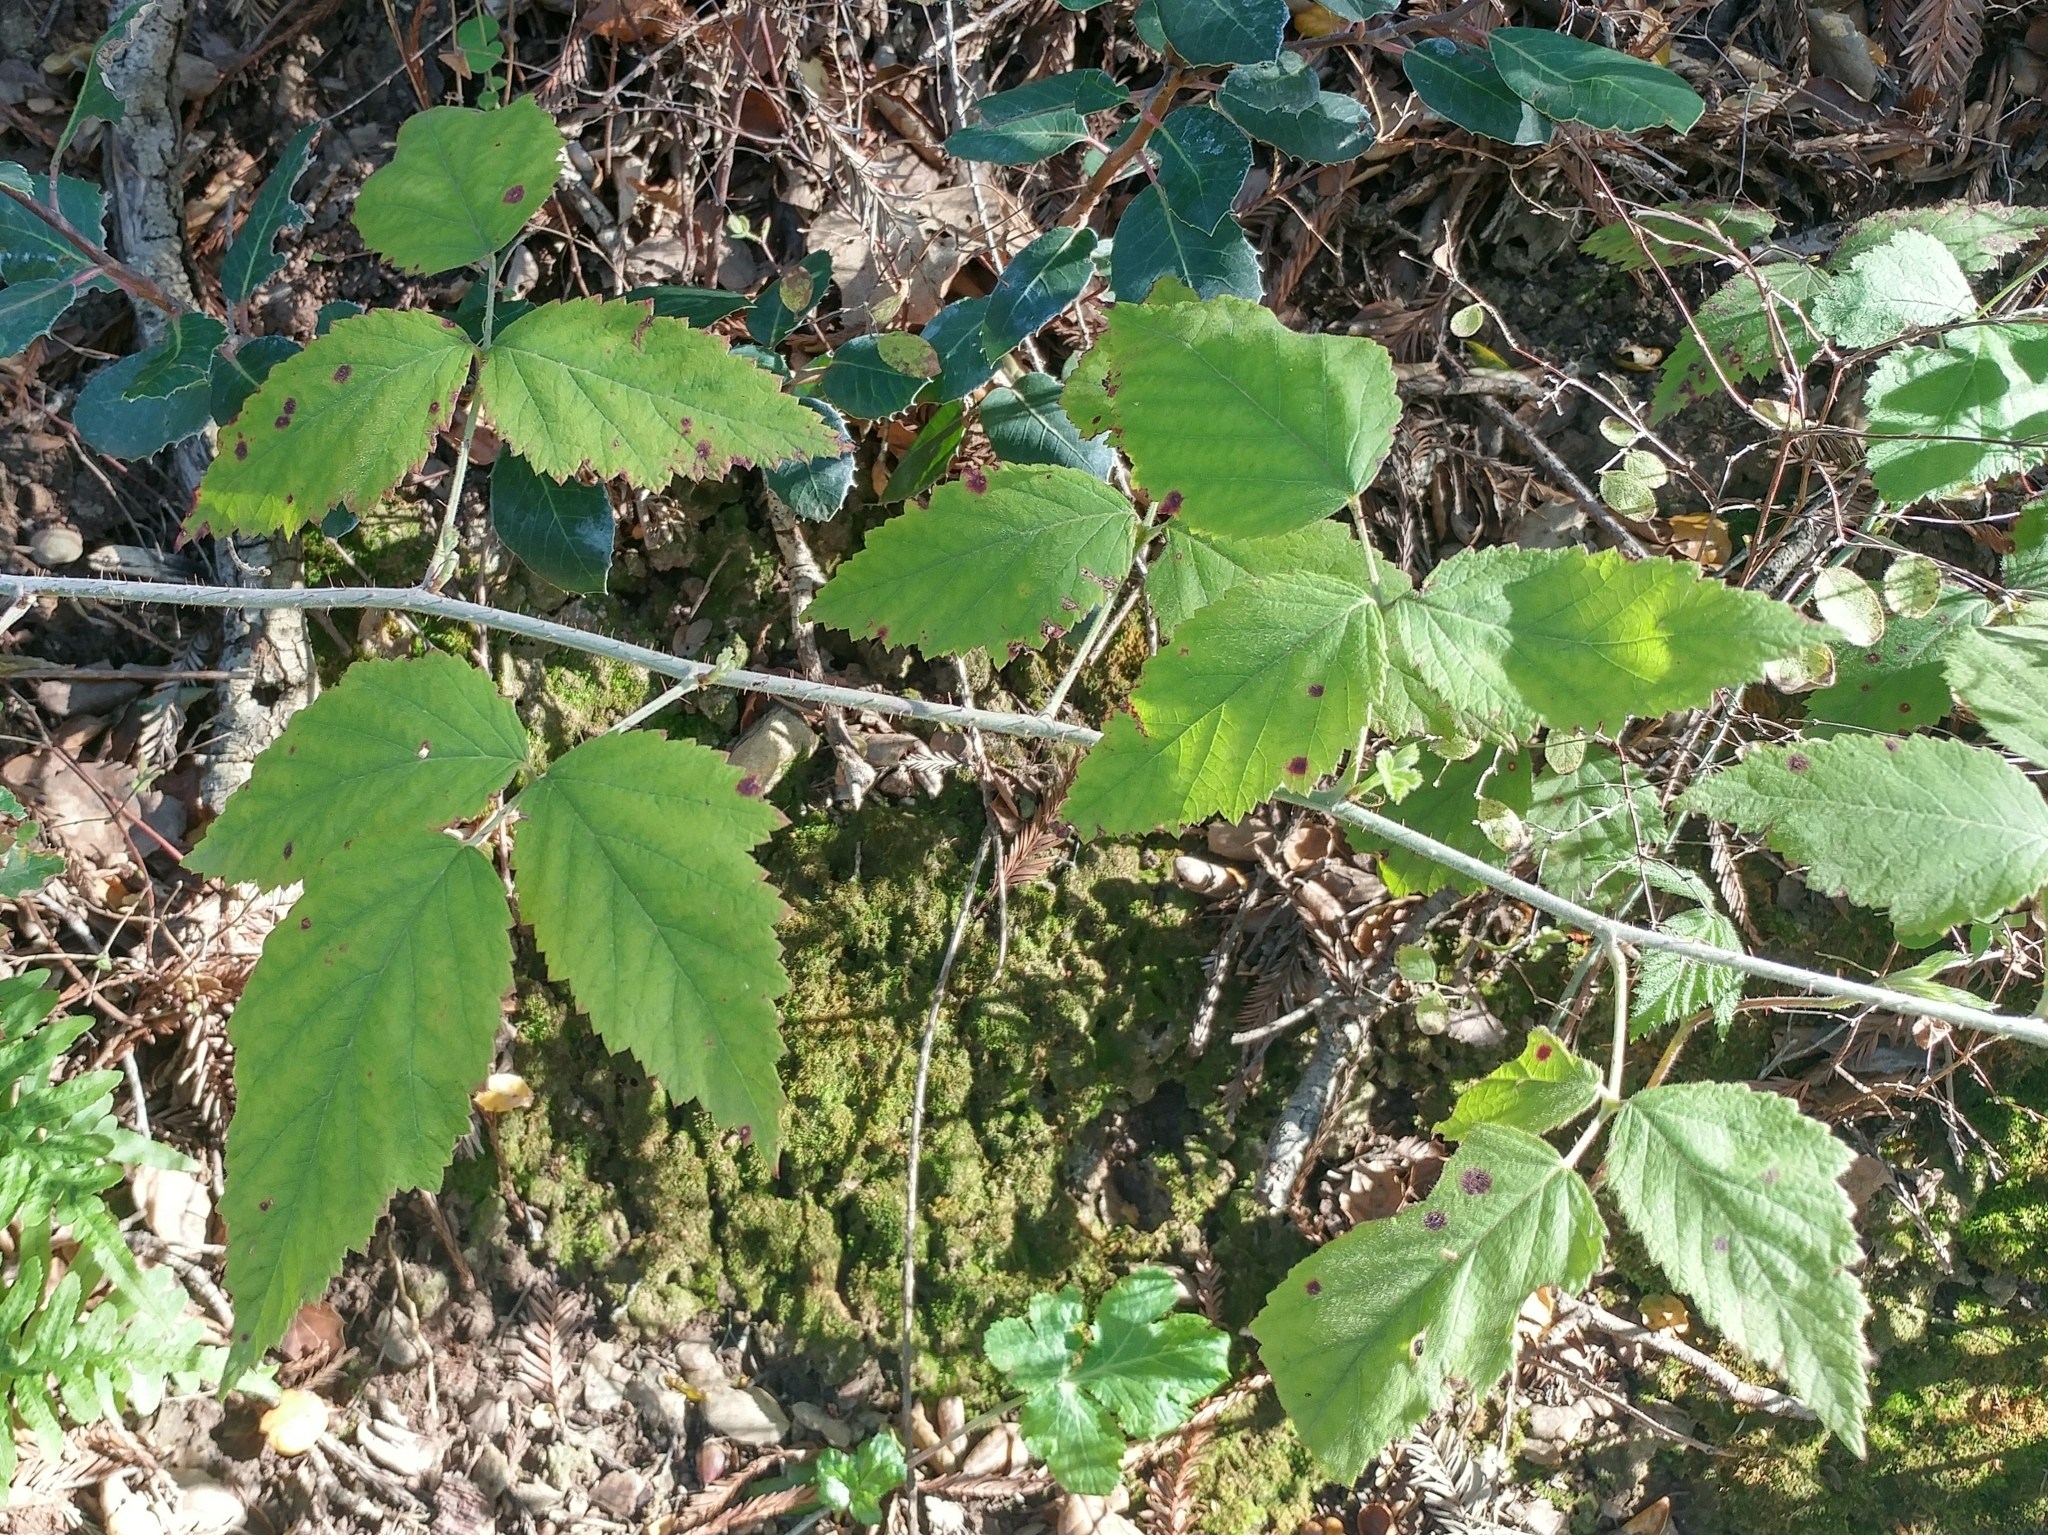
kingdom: Plantae
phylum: Tracheophyta
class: Magnoliopsida
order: Rosales
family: Rosaceae
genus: Rubus
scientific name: Rubus ursinus
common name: Pacific blackberry
